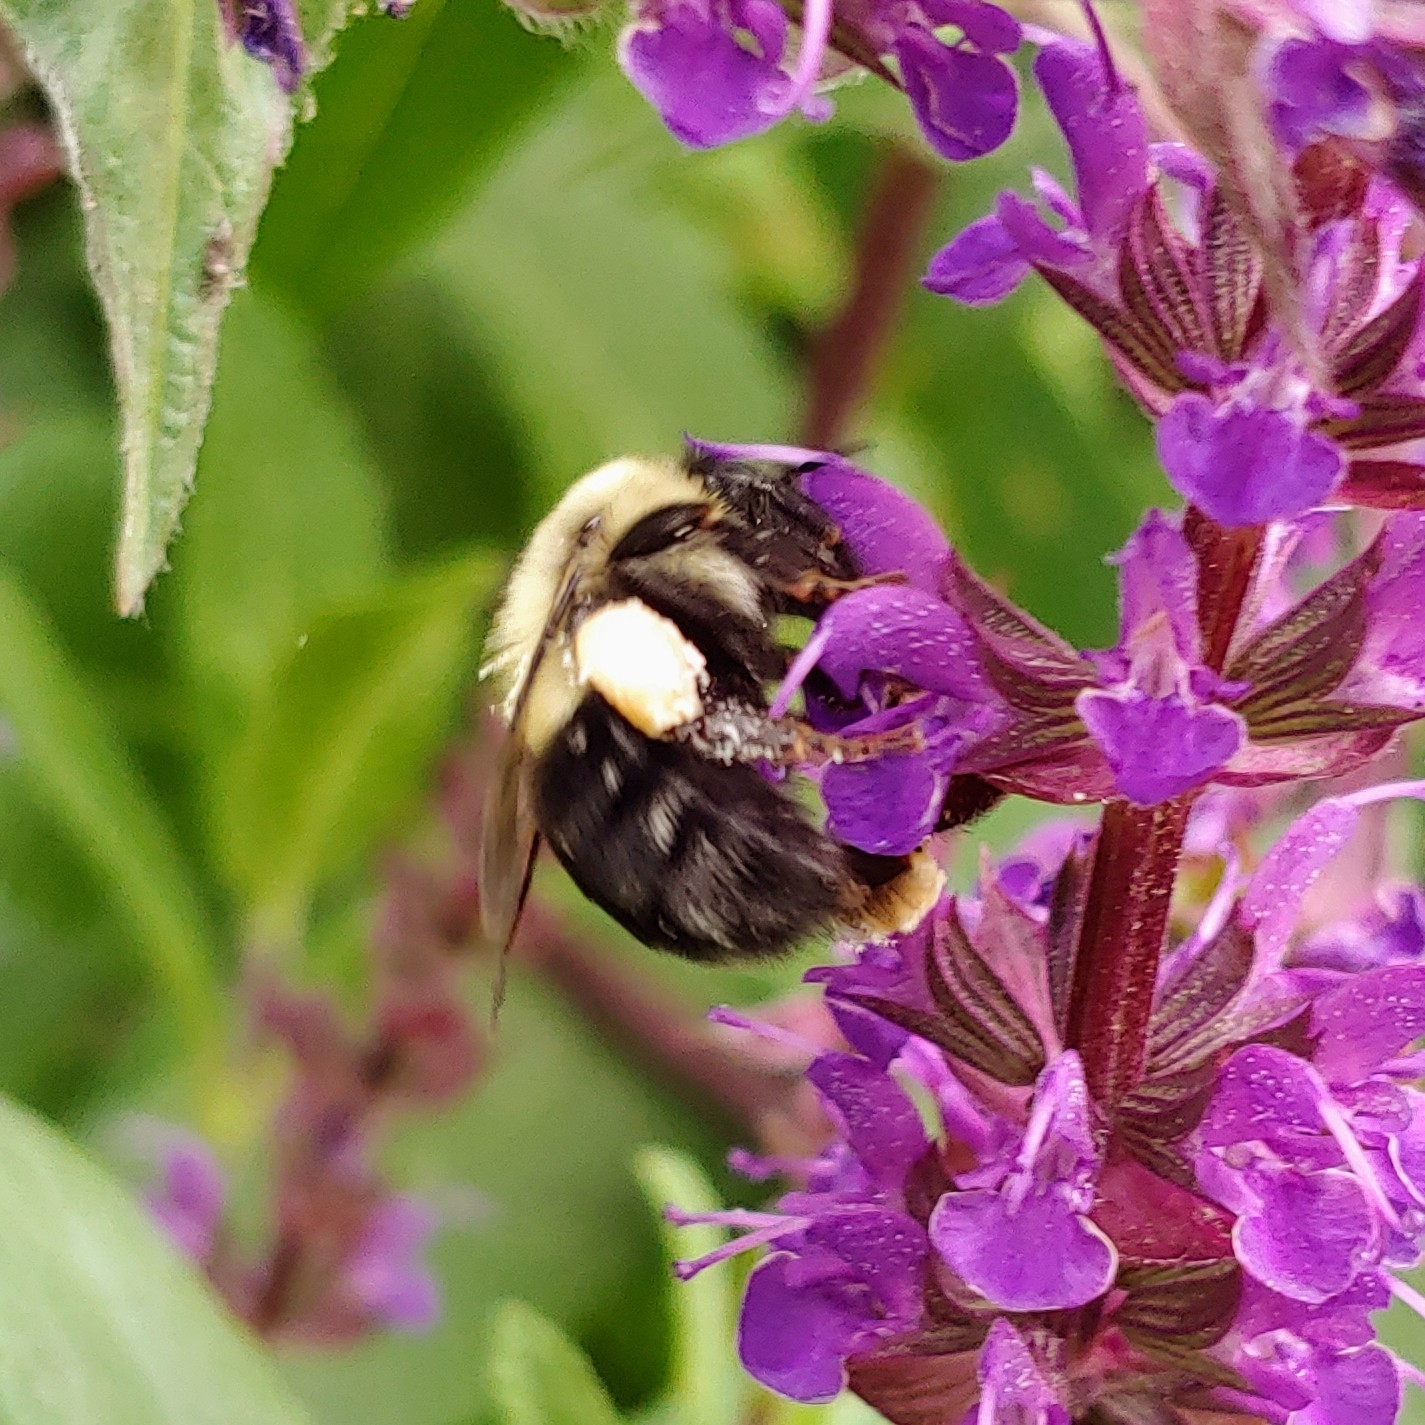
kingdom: Animalia
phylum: Arthropoda
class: Insecta
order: Hymenoptera
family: Apidae
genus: Bombus
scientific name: Bombus impatiens
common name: Common eastern bumble bee
